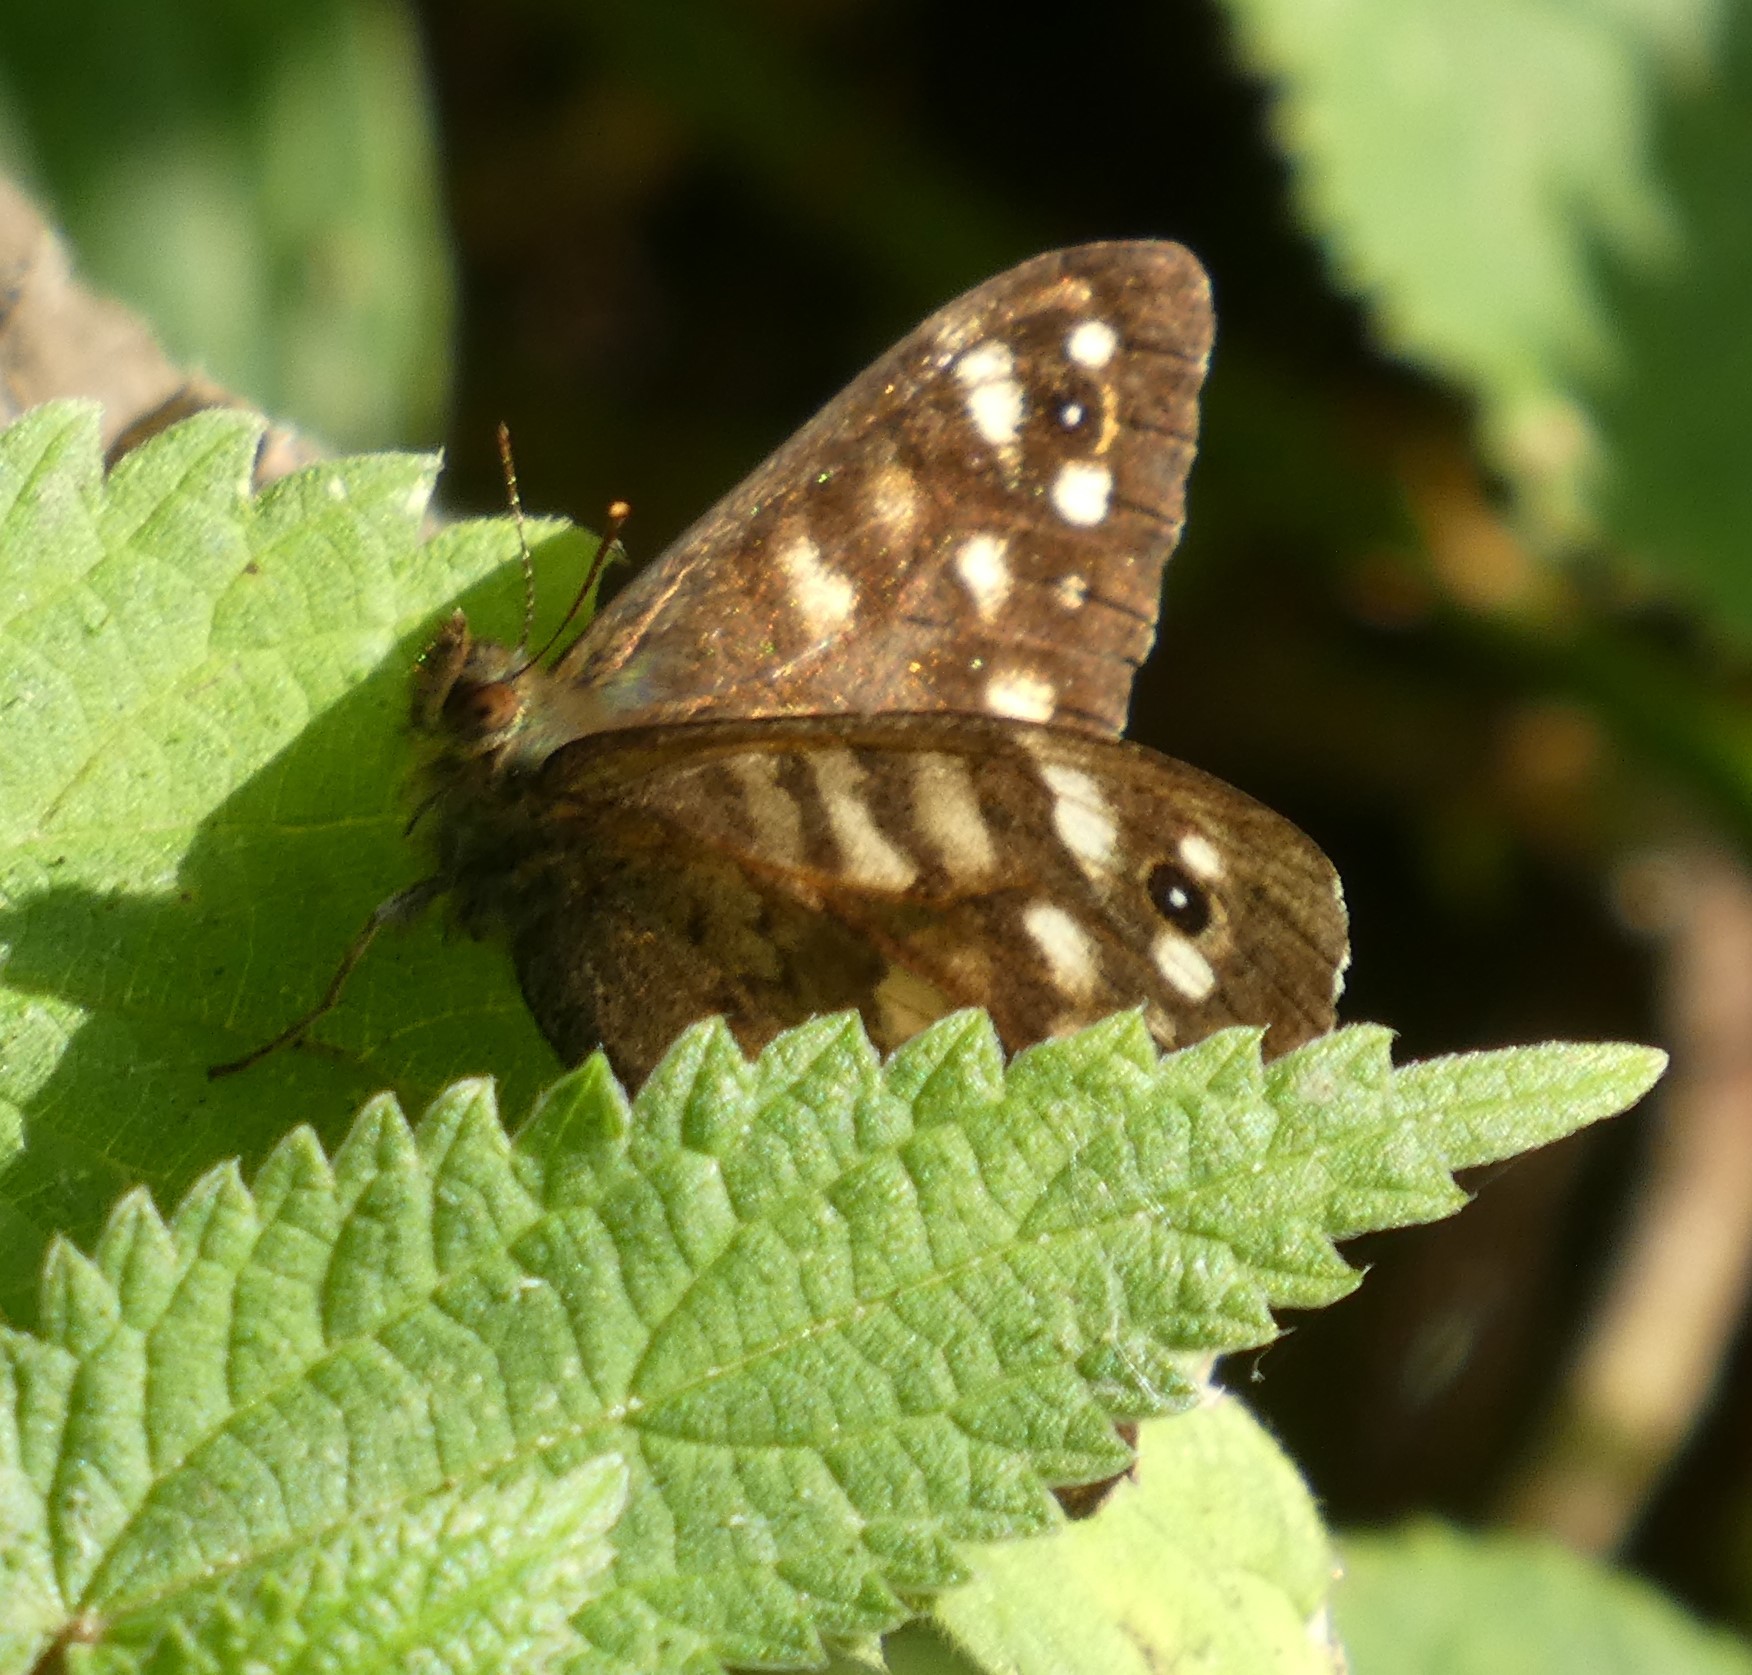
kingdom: Animalia
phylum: Arthropoda
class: Insecta
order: Lepidoptera
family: Nymphalidae
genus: Pararge
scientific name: Pararge aegeria
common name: Speckled wood
